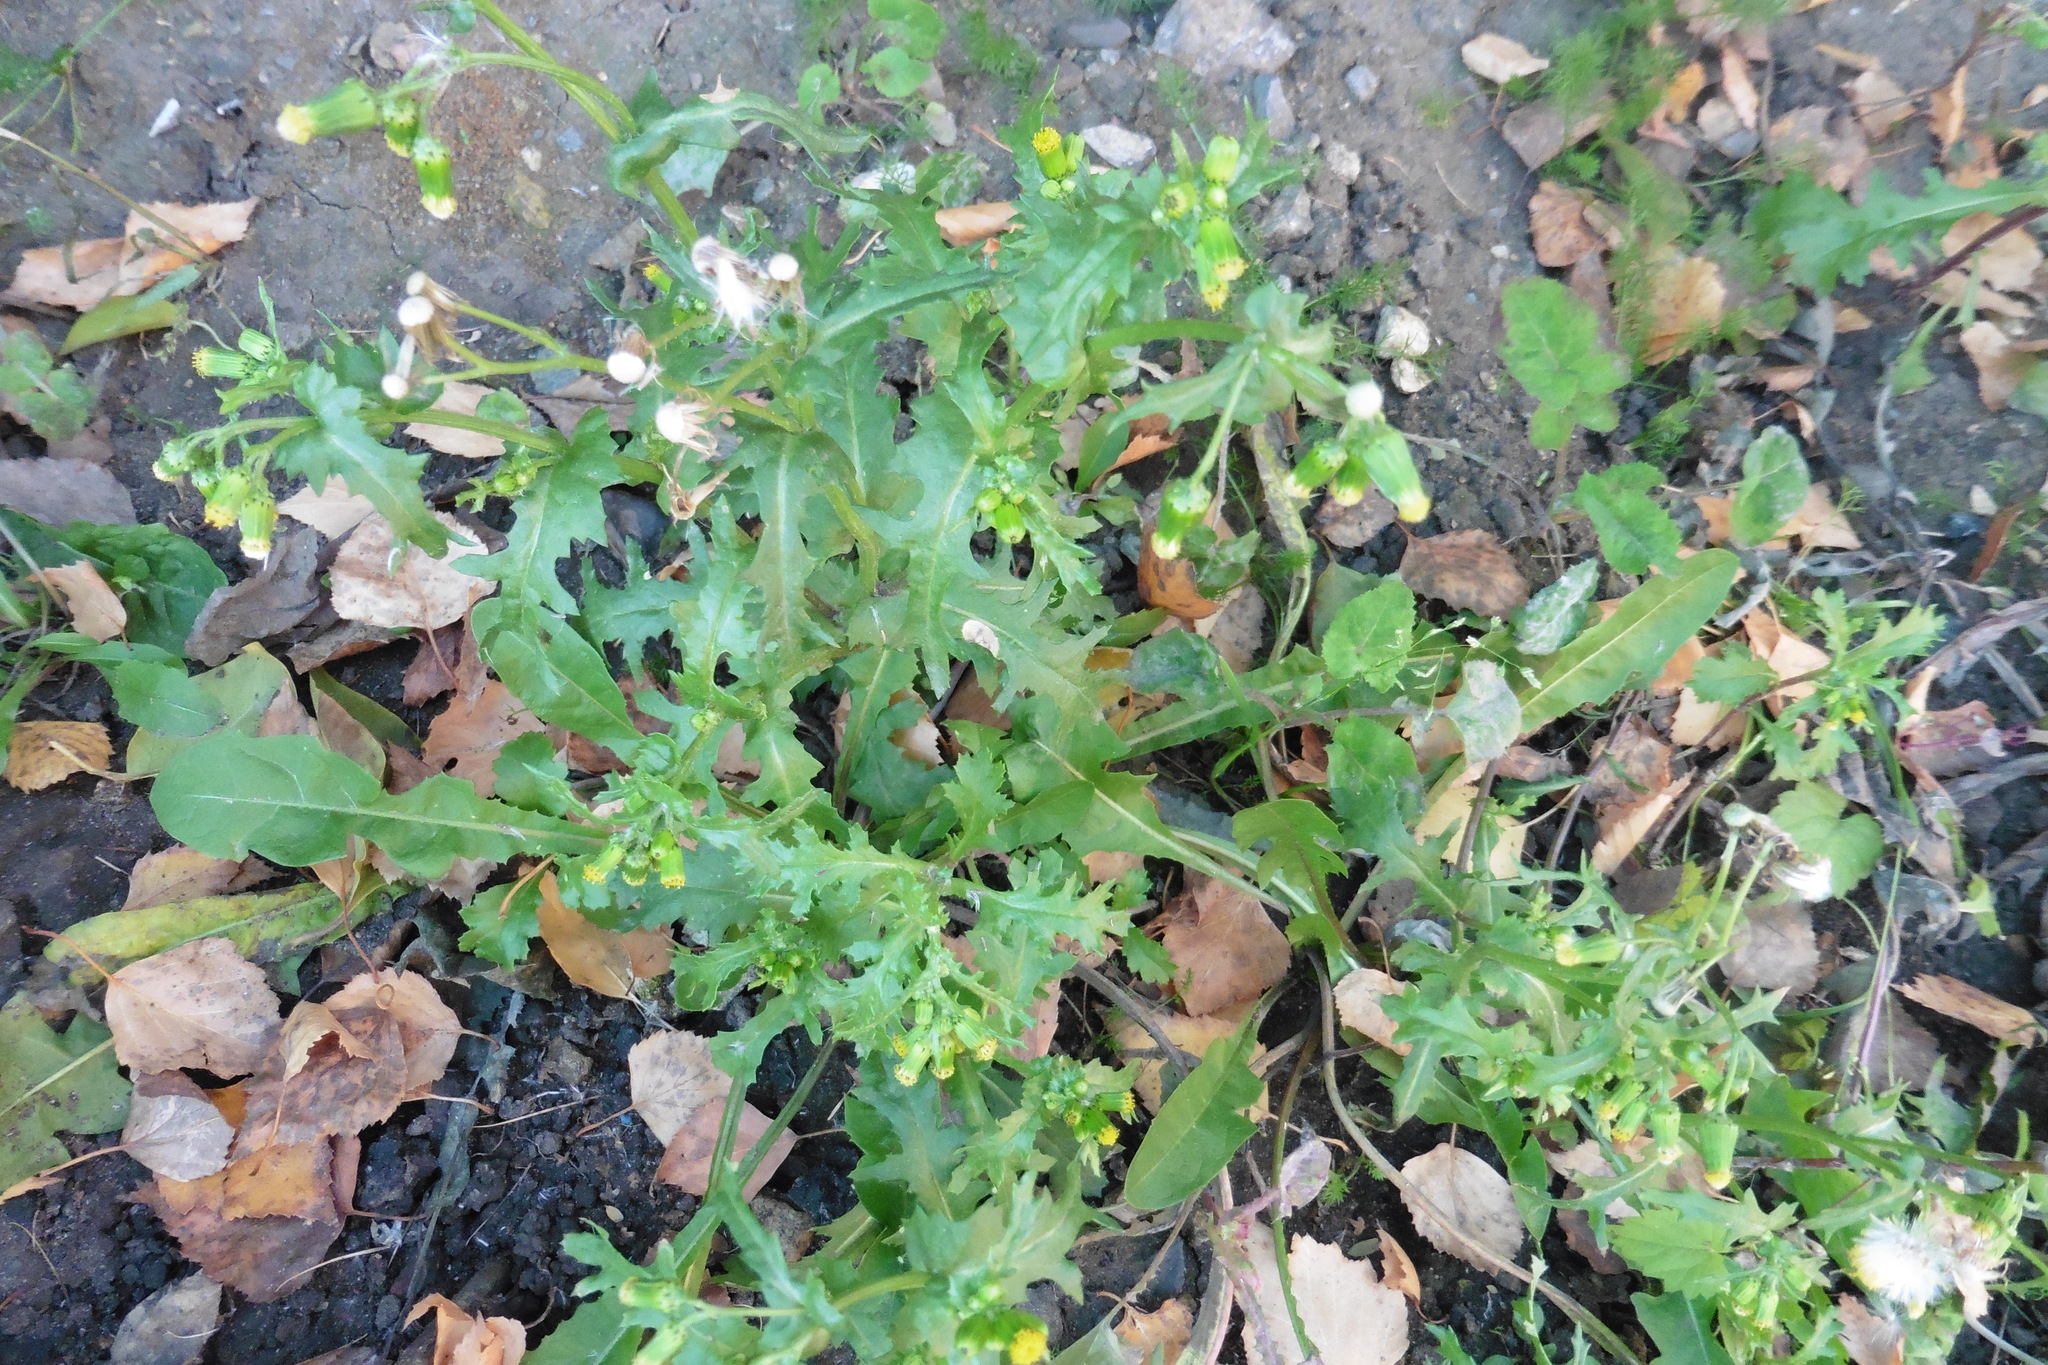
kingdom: Plantae
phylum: Tracheophyta
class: Magnoliopsida
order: Asterales
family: Asteraceae
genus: Senecio
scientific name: Senecio vulgaris
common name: Old-man-in-the-spring
